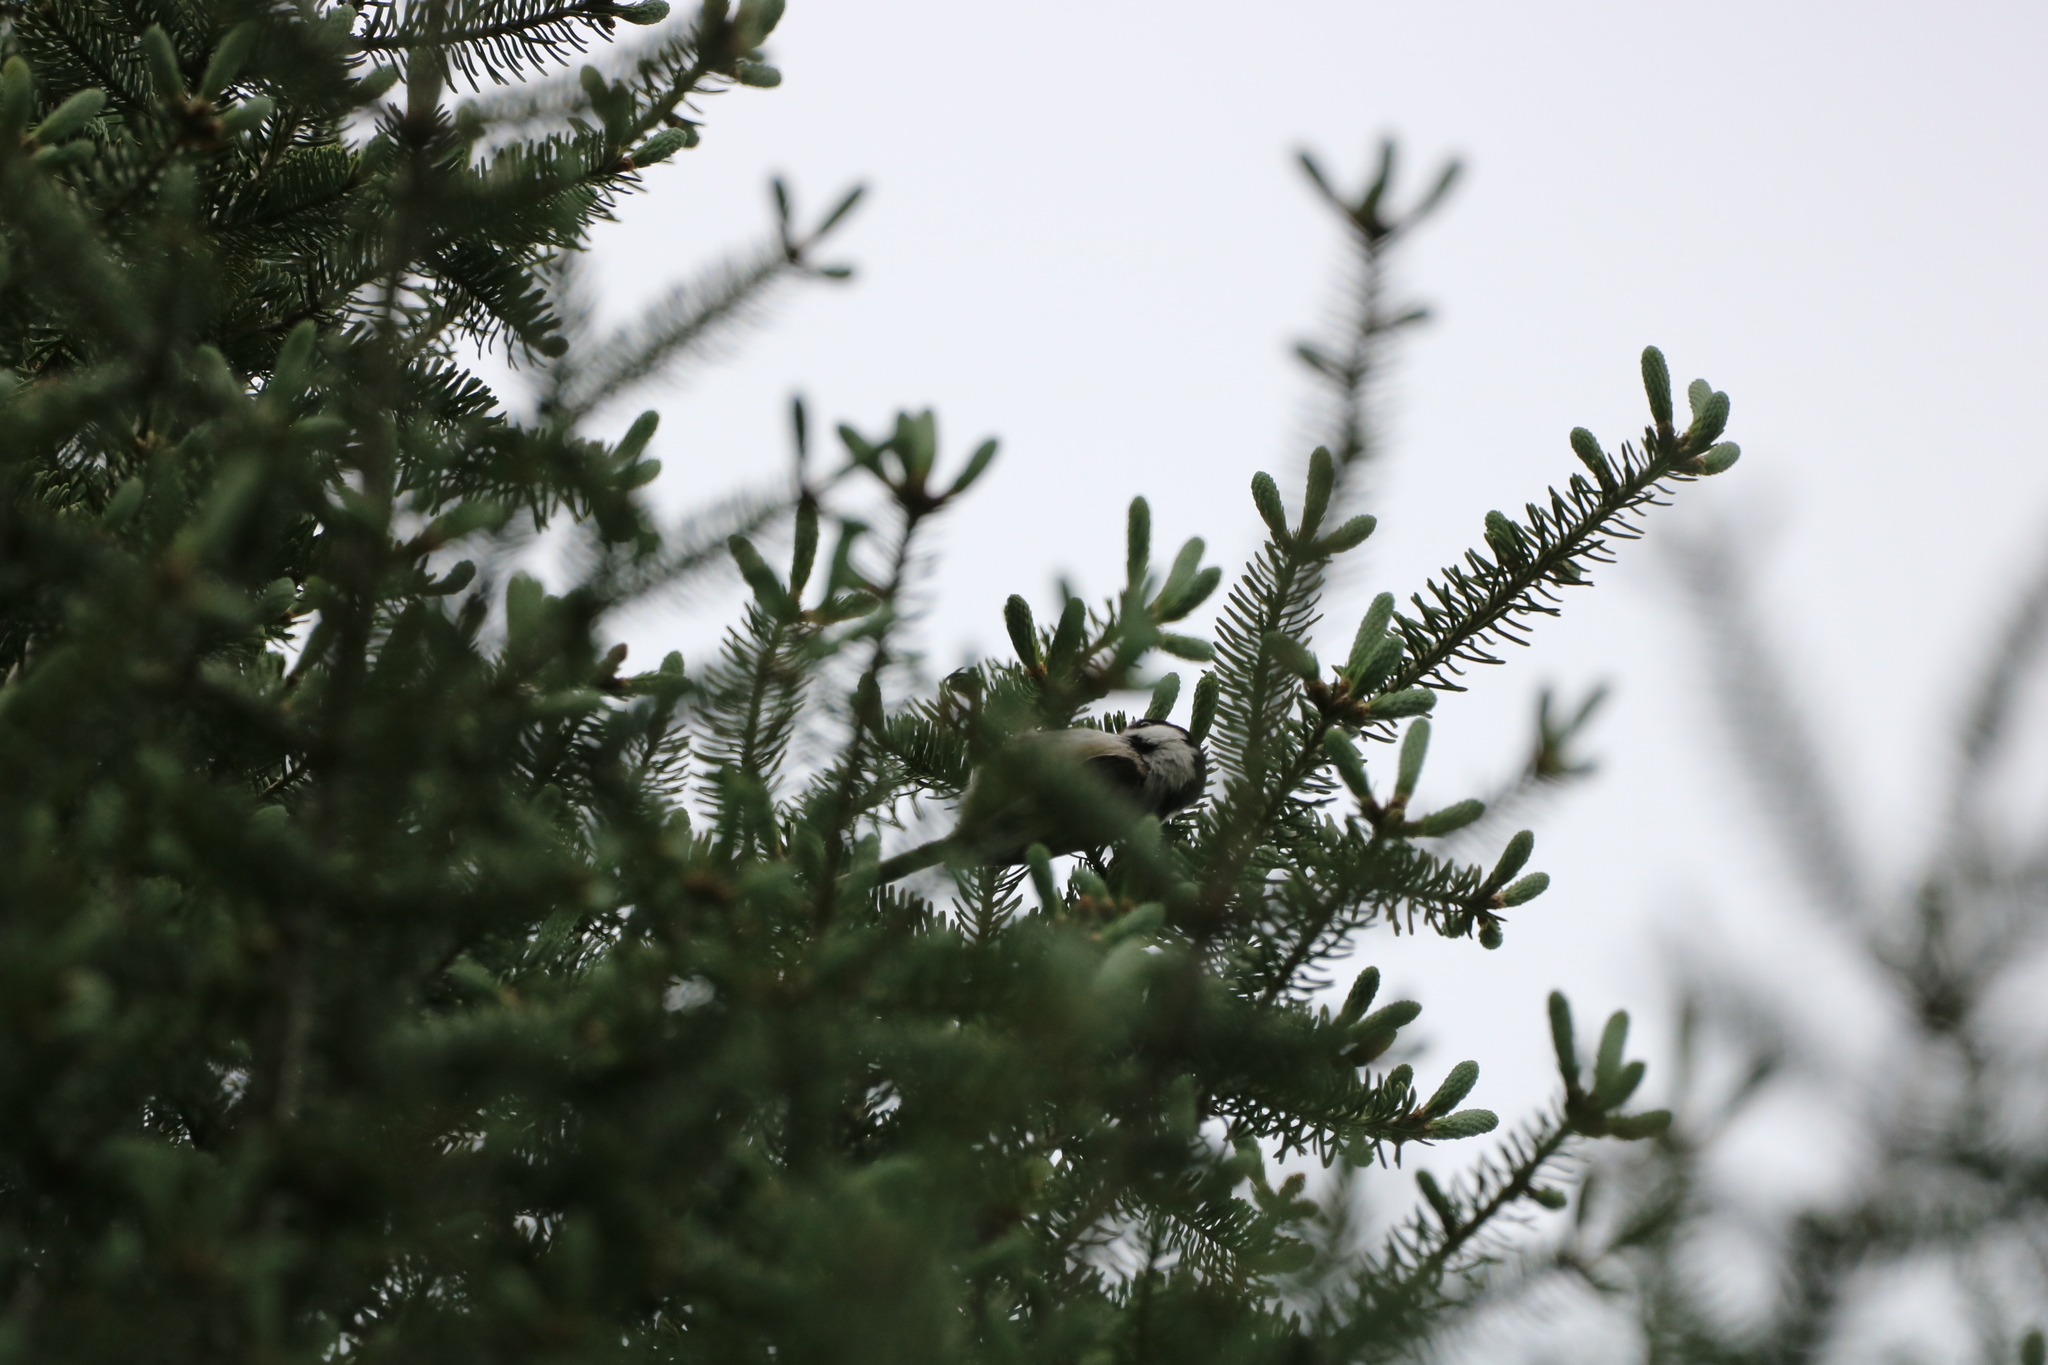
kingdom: Animalia
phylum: Chordata
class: Aves
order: Passeriformes
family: Paridae
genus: Poecile
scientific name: Poecile atricapillus
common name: Black-capped chickadee
